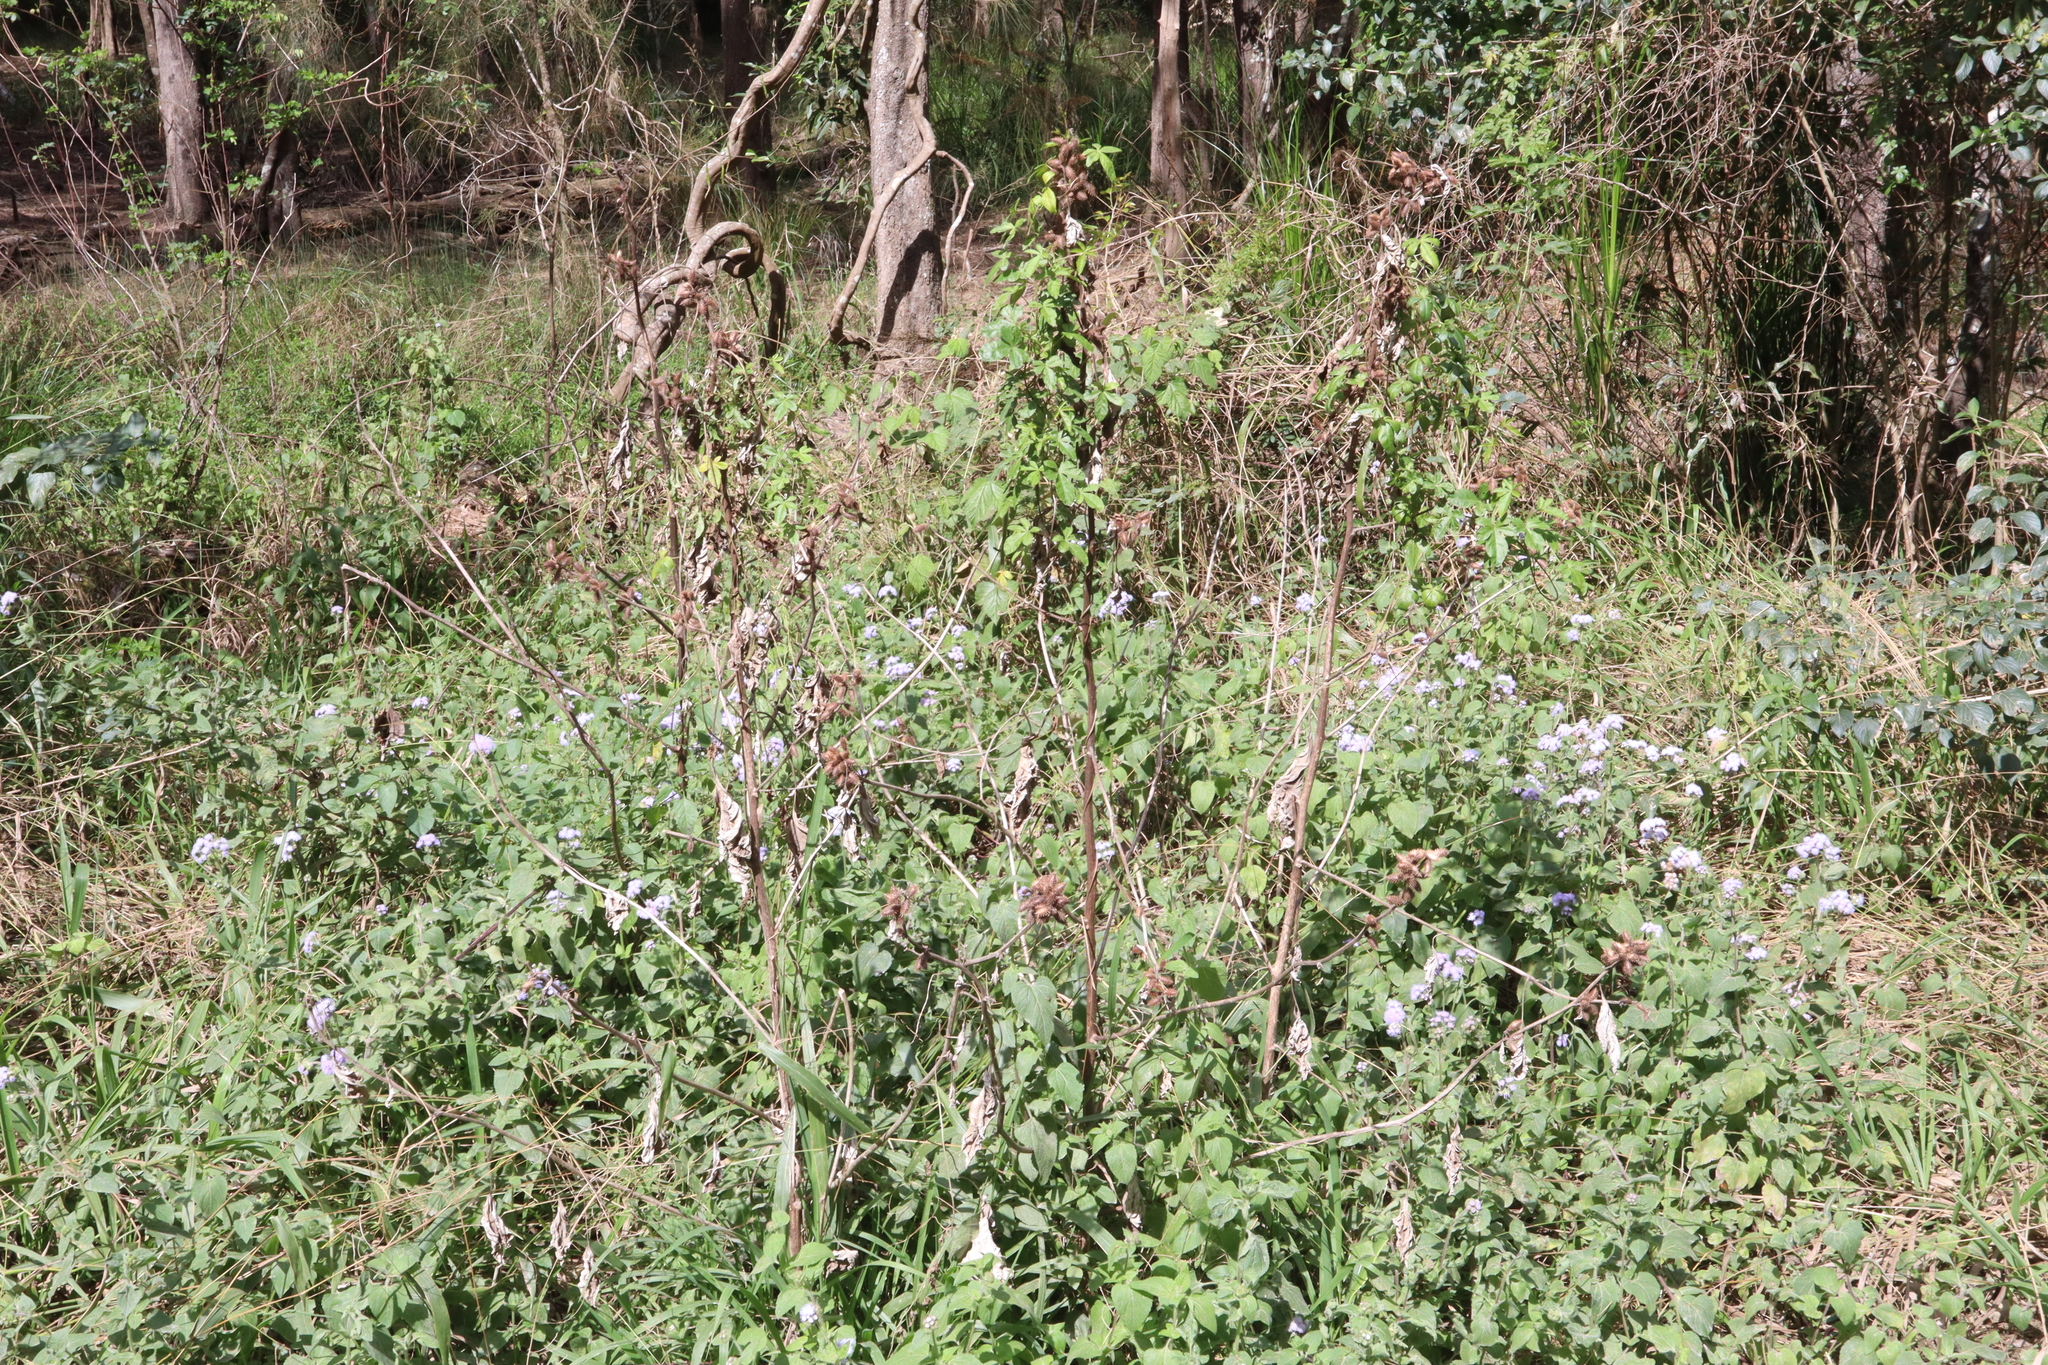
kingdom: Plantae
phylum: Tracheophyta
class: Magnoliopsida
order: Asterales
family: Asteraceae
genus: Xanthium
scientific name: Xanthium strumarium
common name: Rough cocklebur
